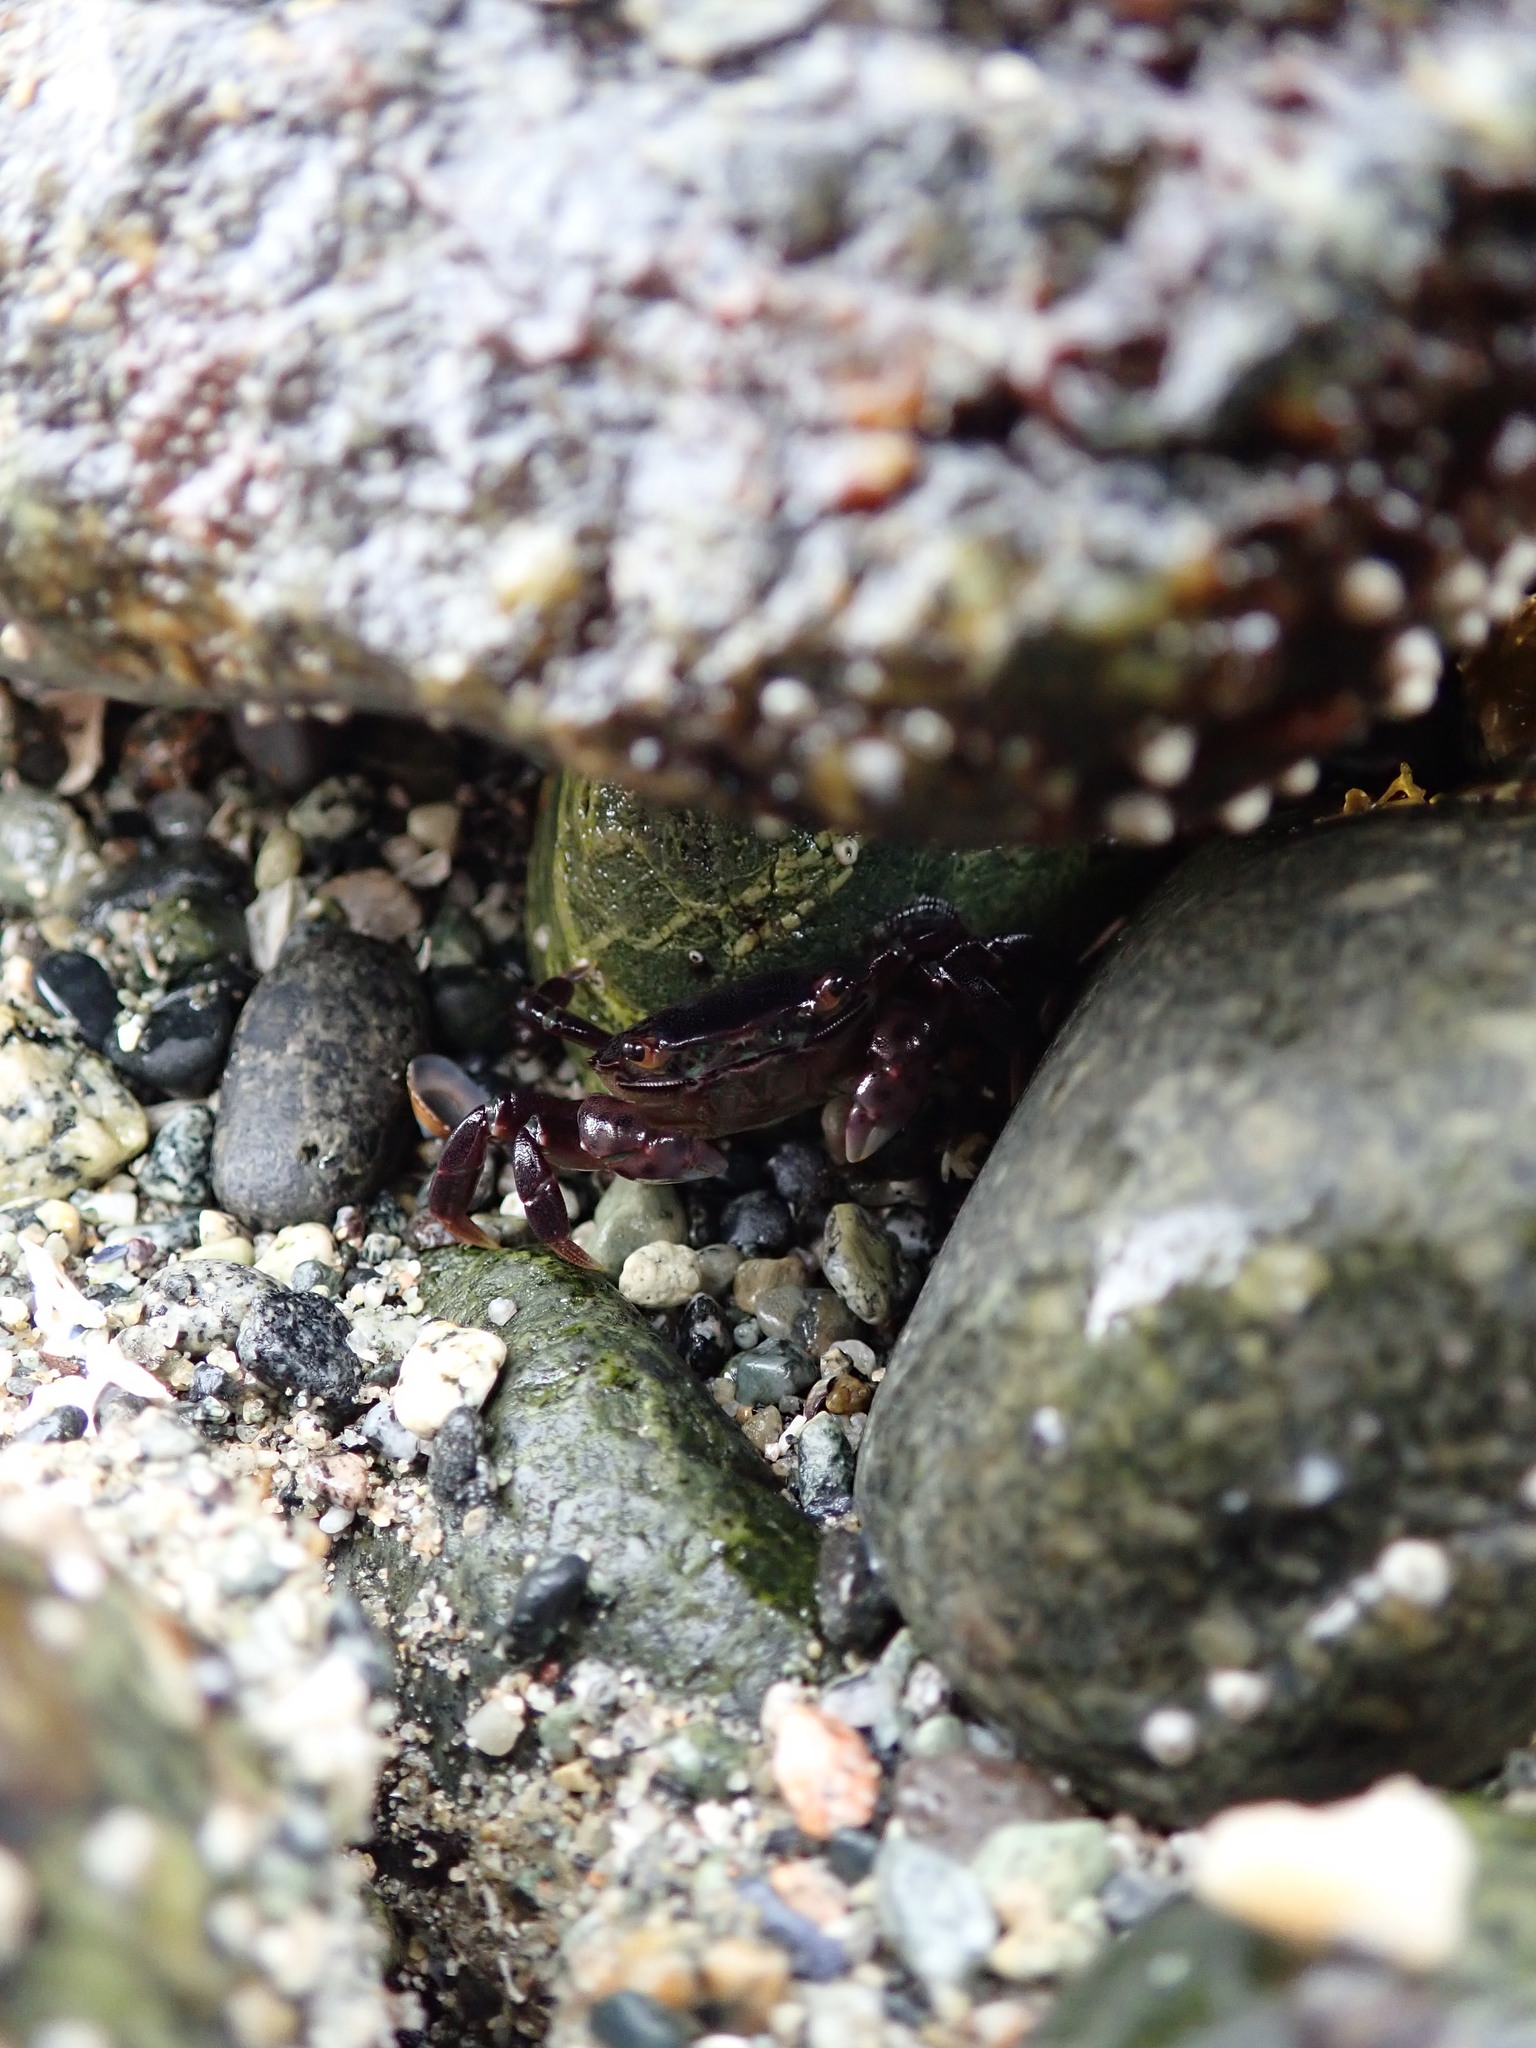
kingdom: Animalia
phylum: Arthropoda
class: Malacostraca
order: Decapoda
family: Varunidae
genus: Hemigrapsus
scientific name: Hemigrapsus nudus
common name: Purple shore crab
